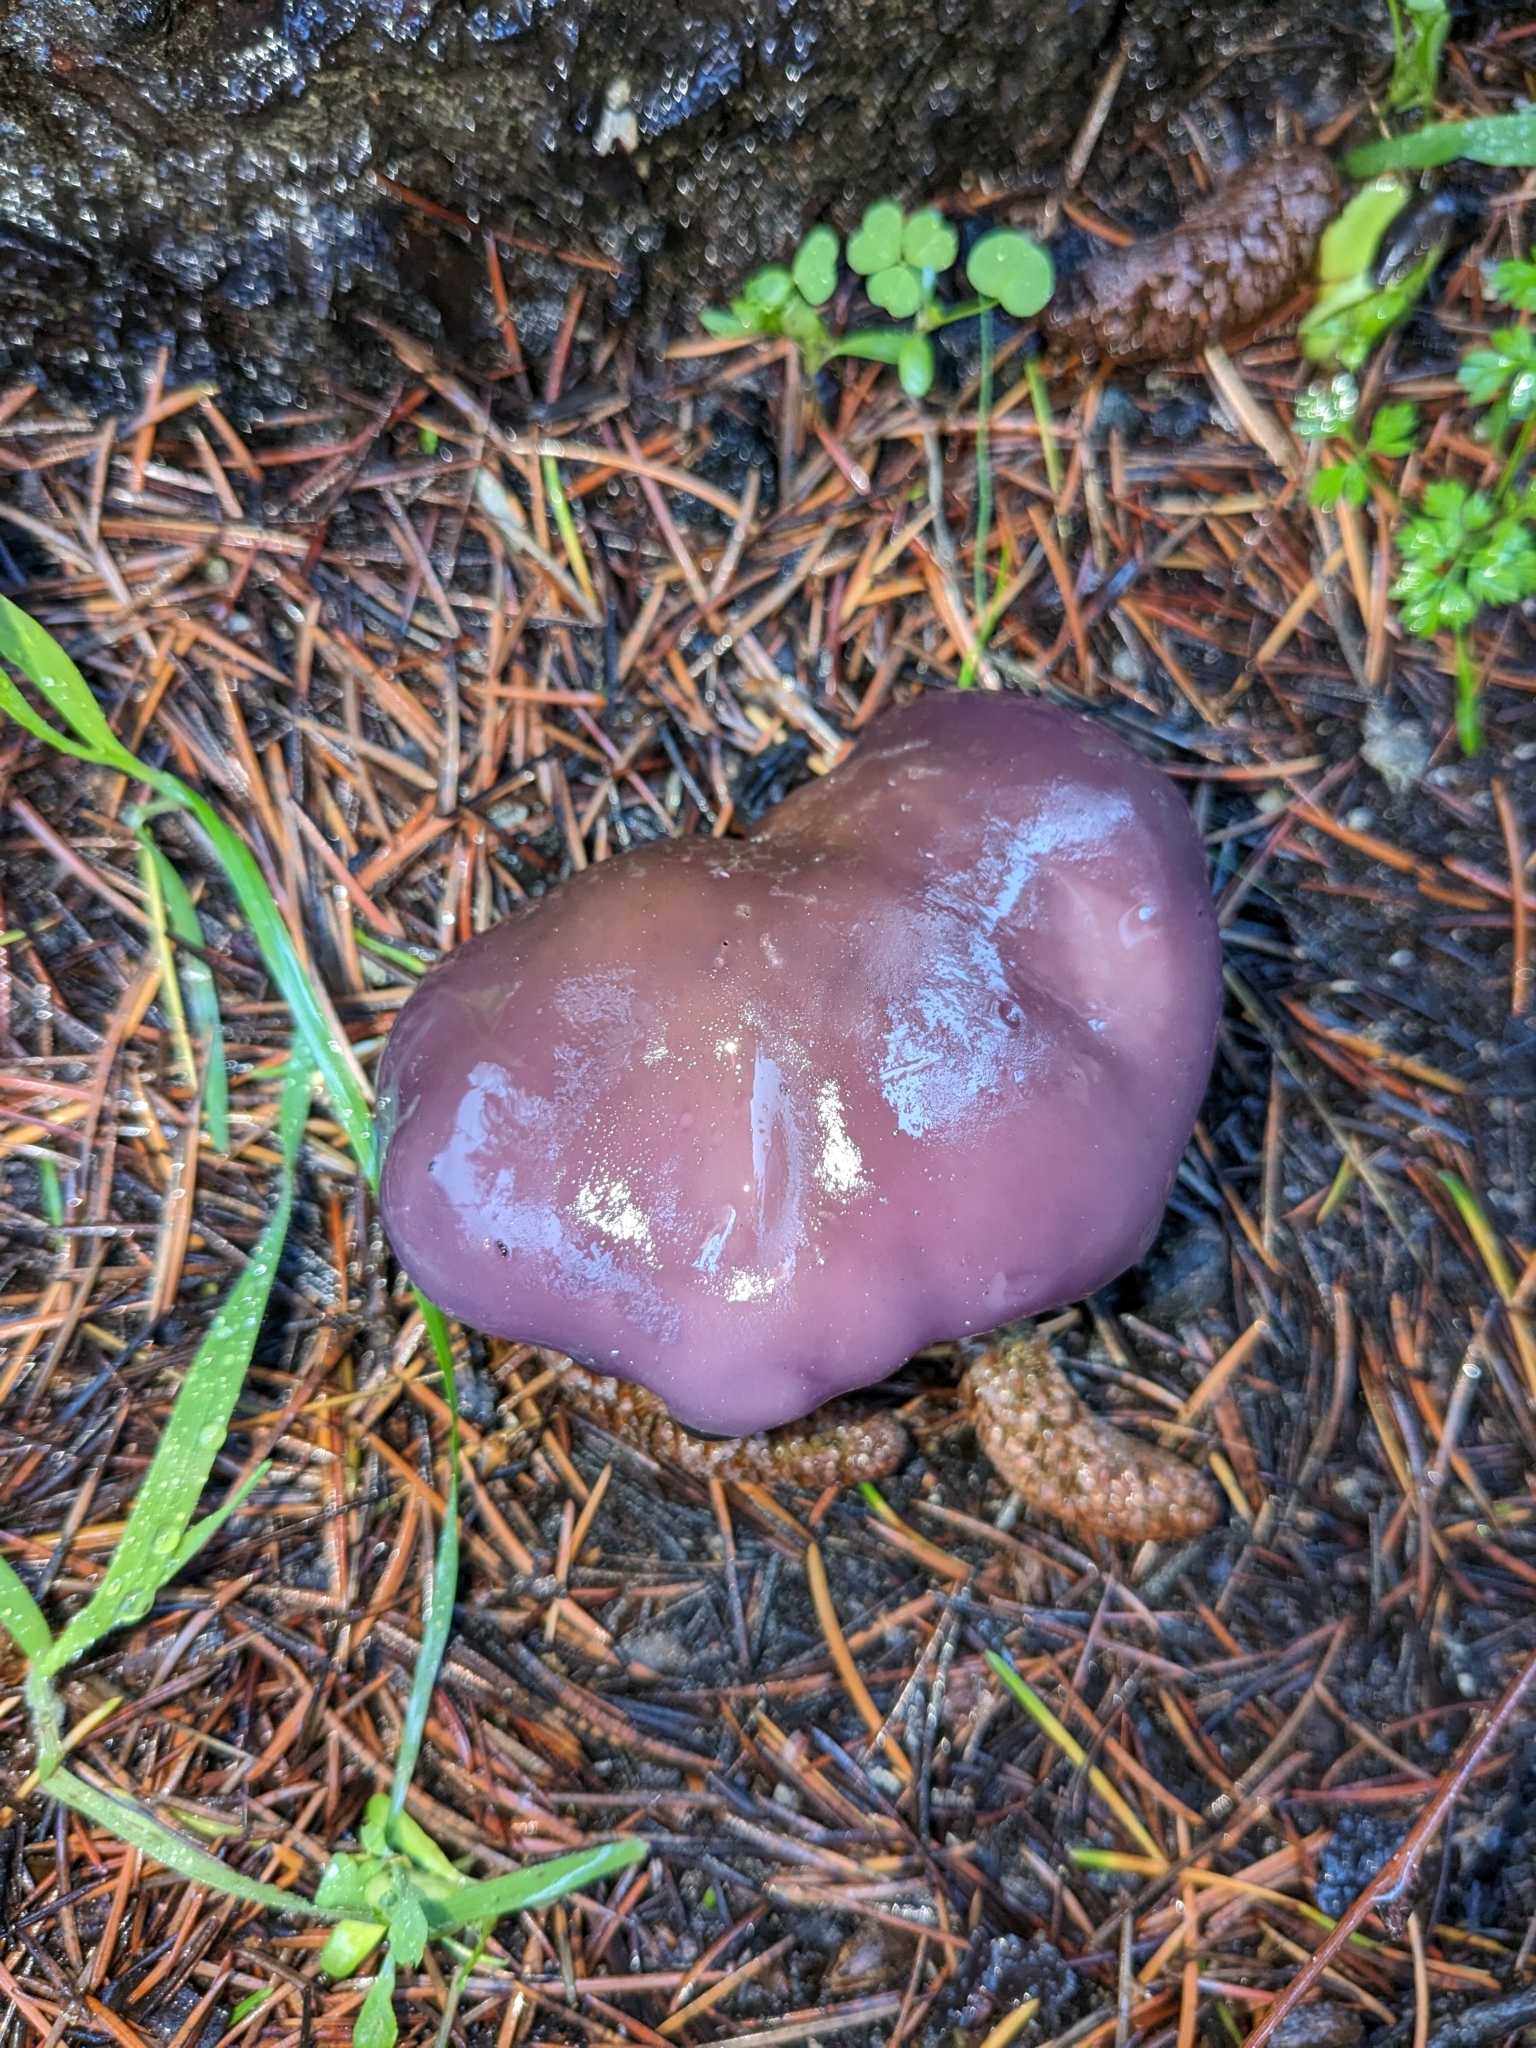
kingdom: Fungi
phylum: Basidiomycota
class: Agaricomycetes
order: Agaricales
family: Tricholomataceae
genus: Collybia
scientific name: Collybia
